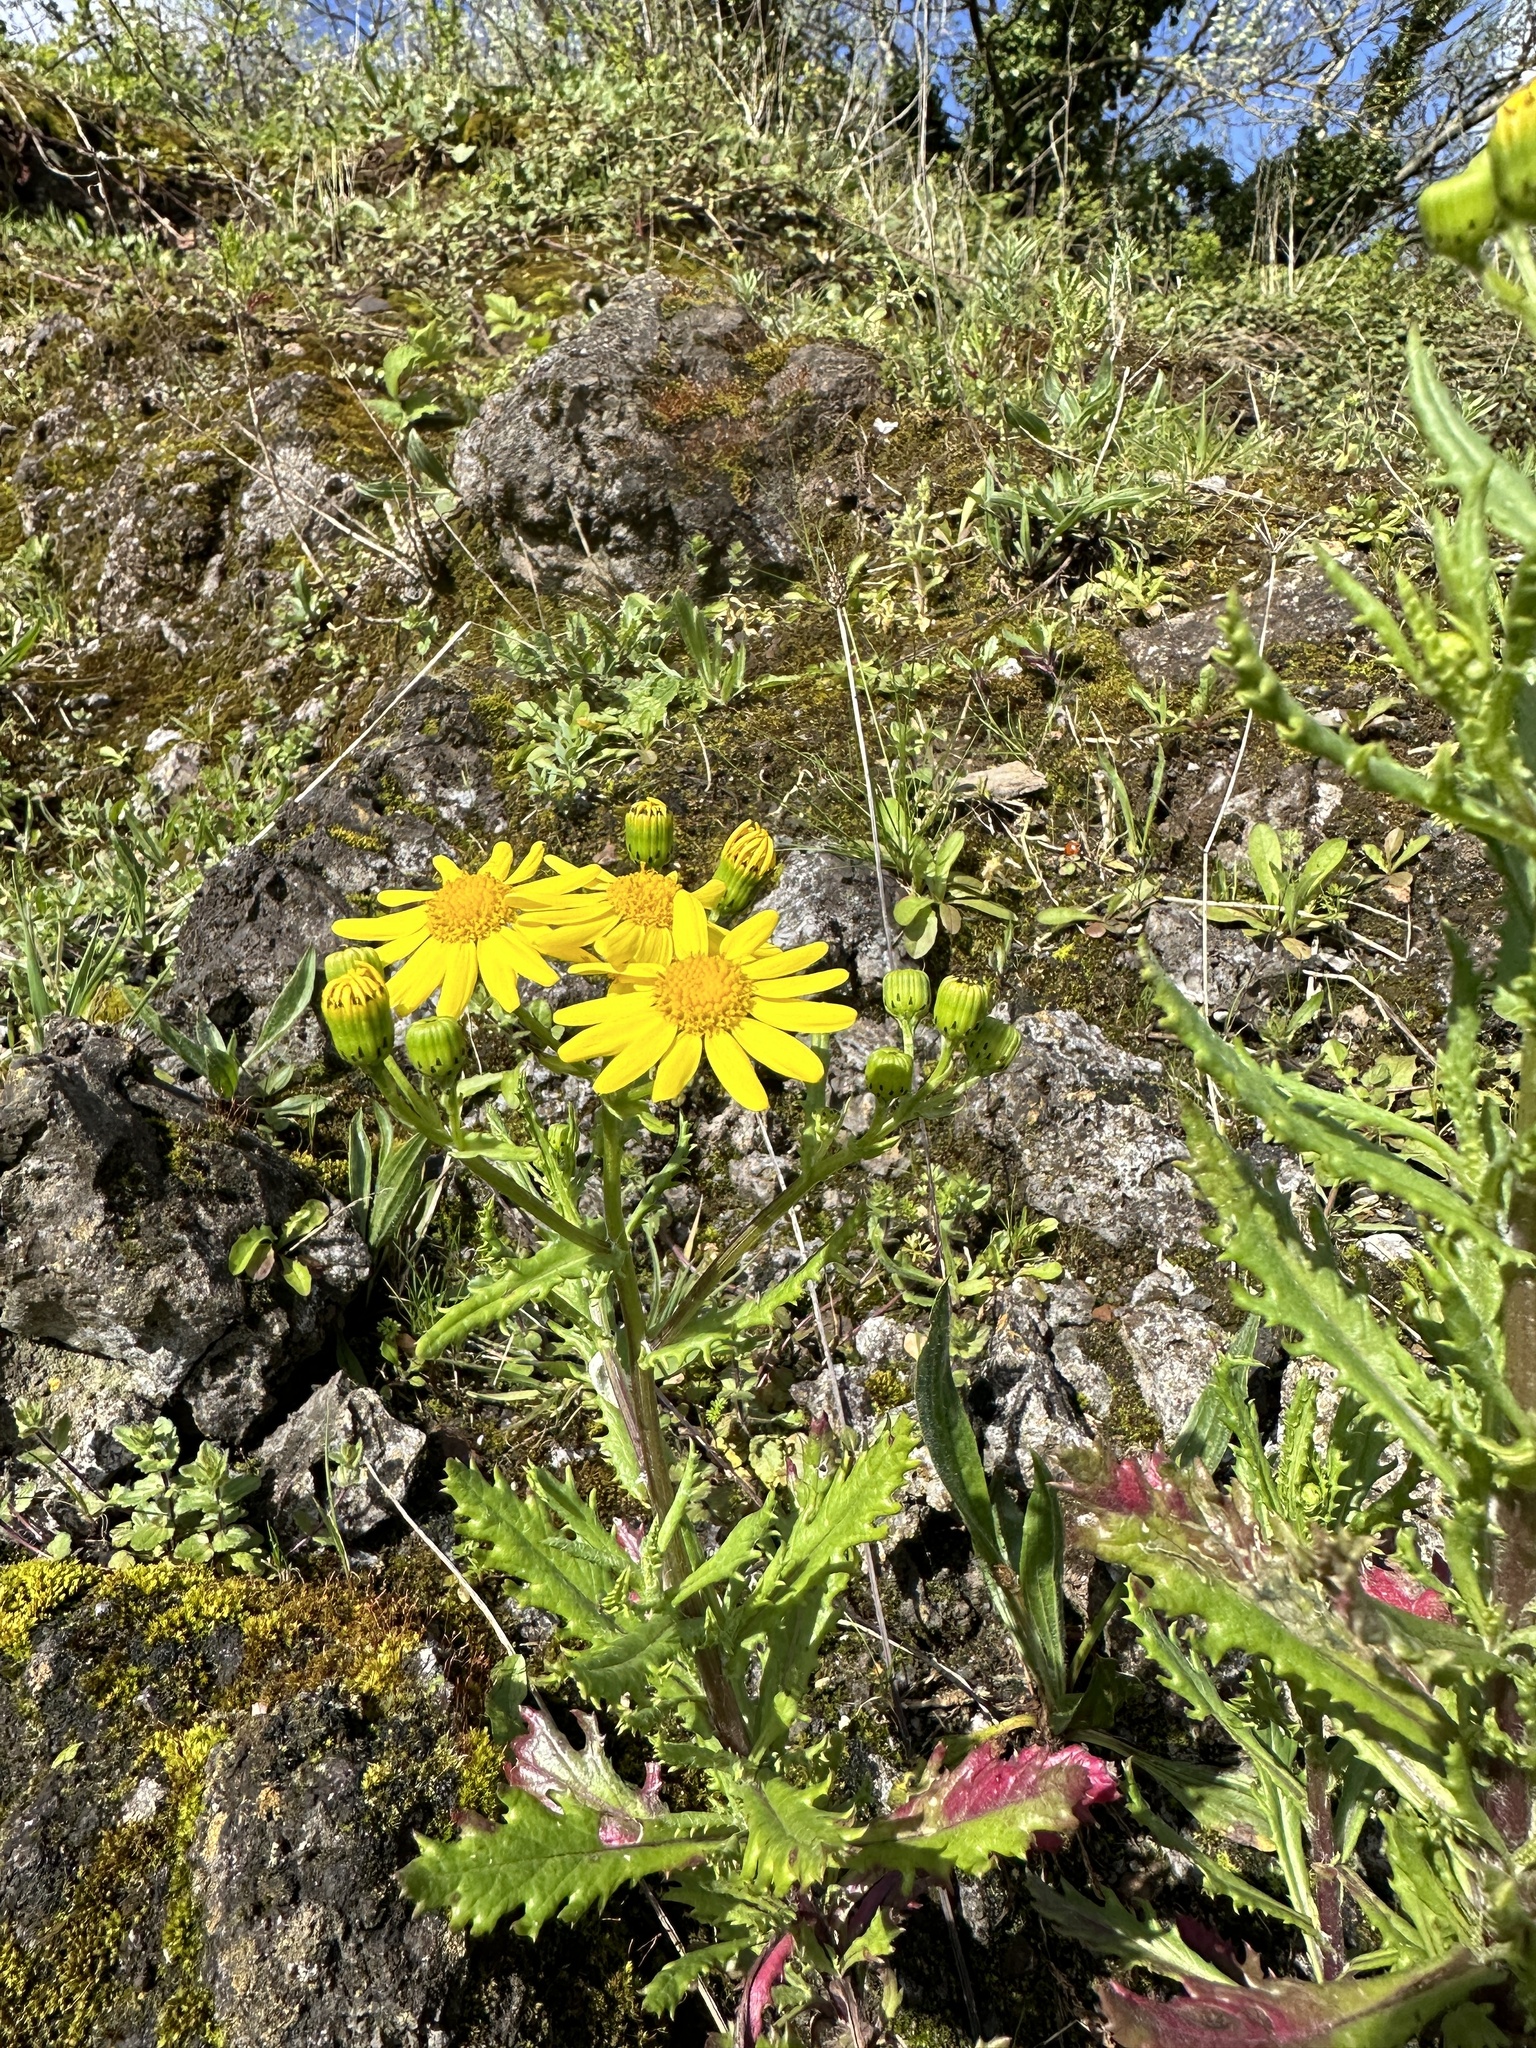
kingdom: Plantae
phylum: Tracheophyta
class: Magnoliopsida
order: Asterales
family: Asteraceae
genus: Senecio
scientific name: Senecio squalidus
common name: Oxford ragwort
